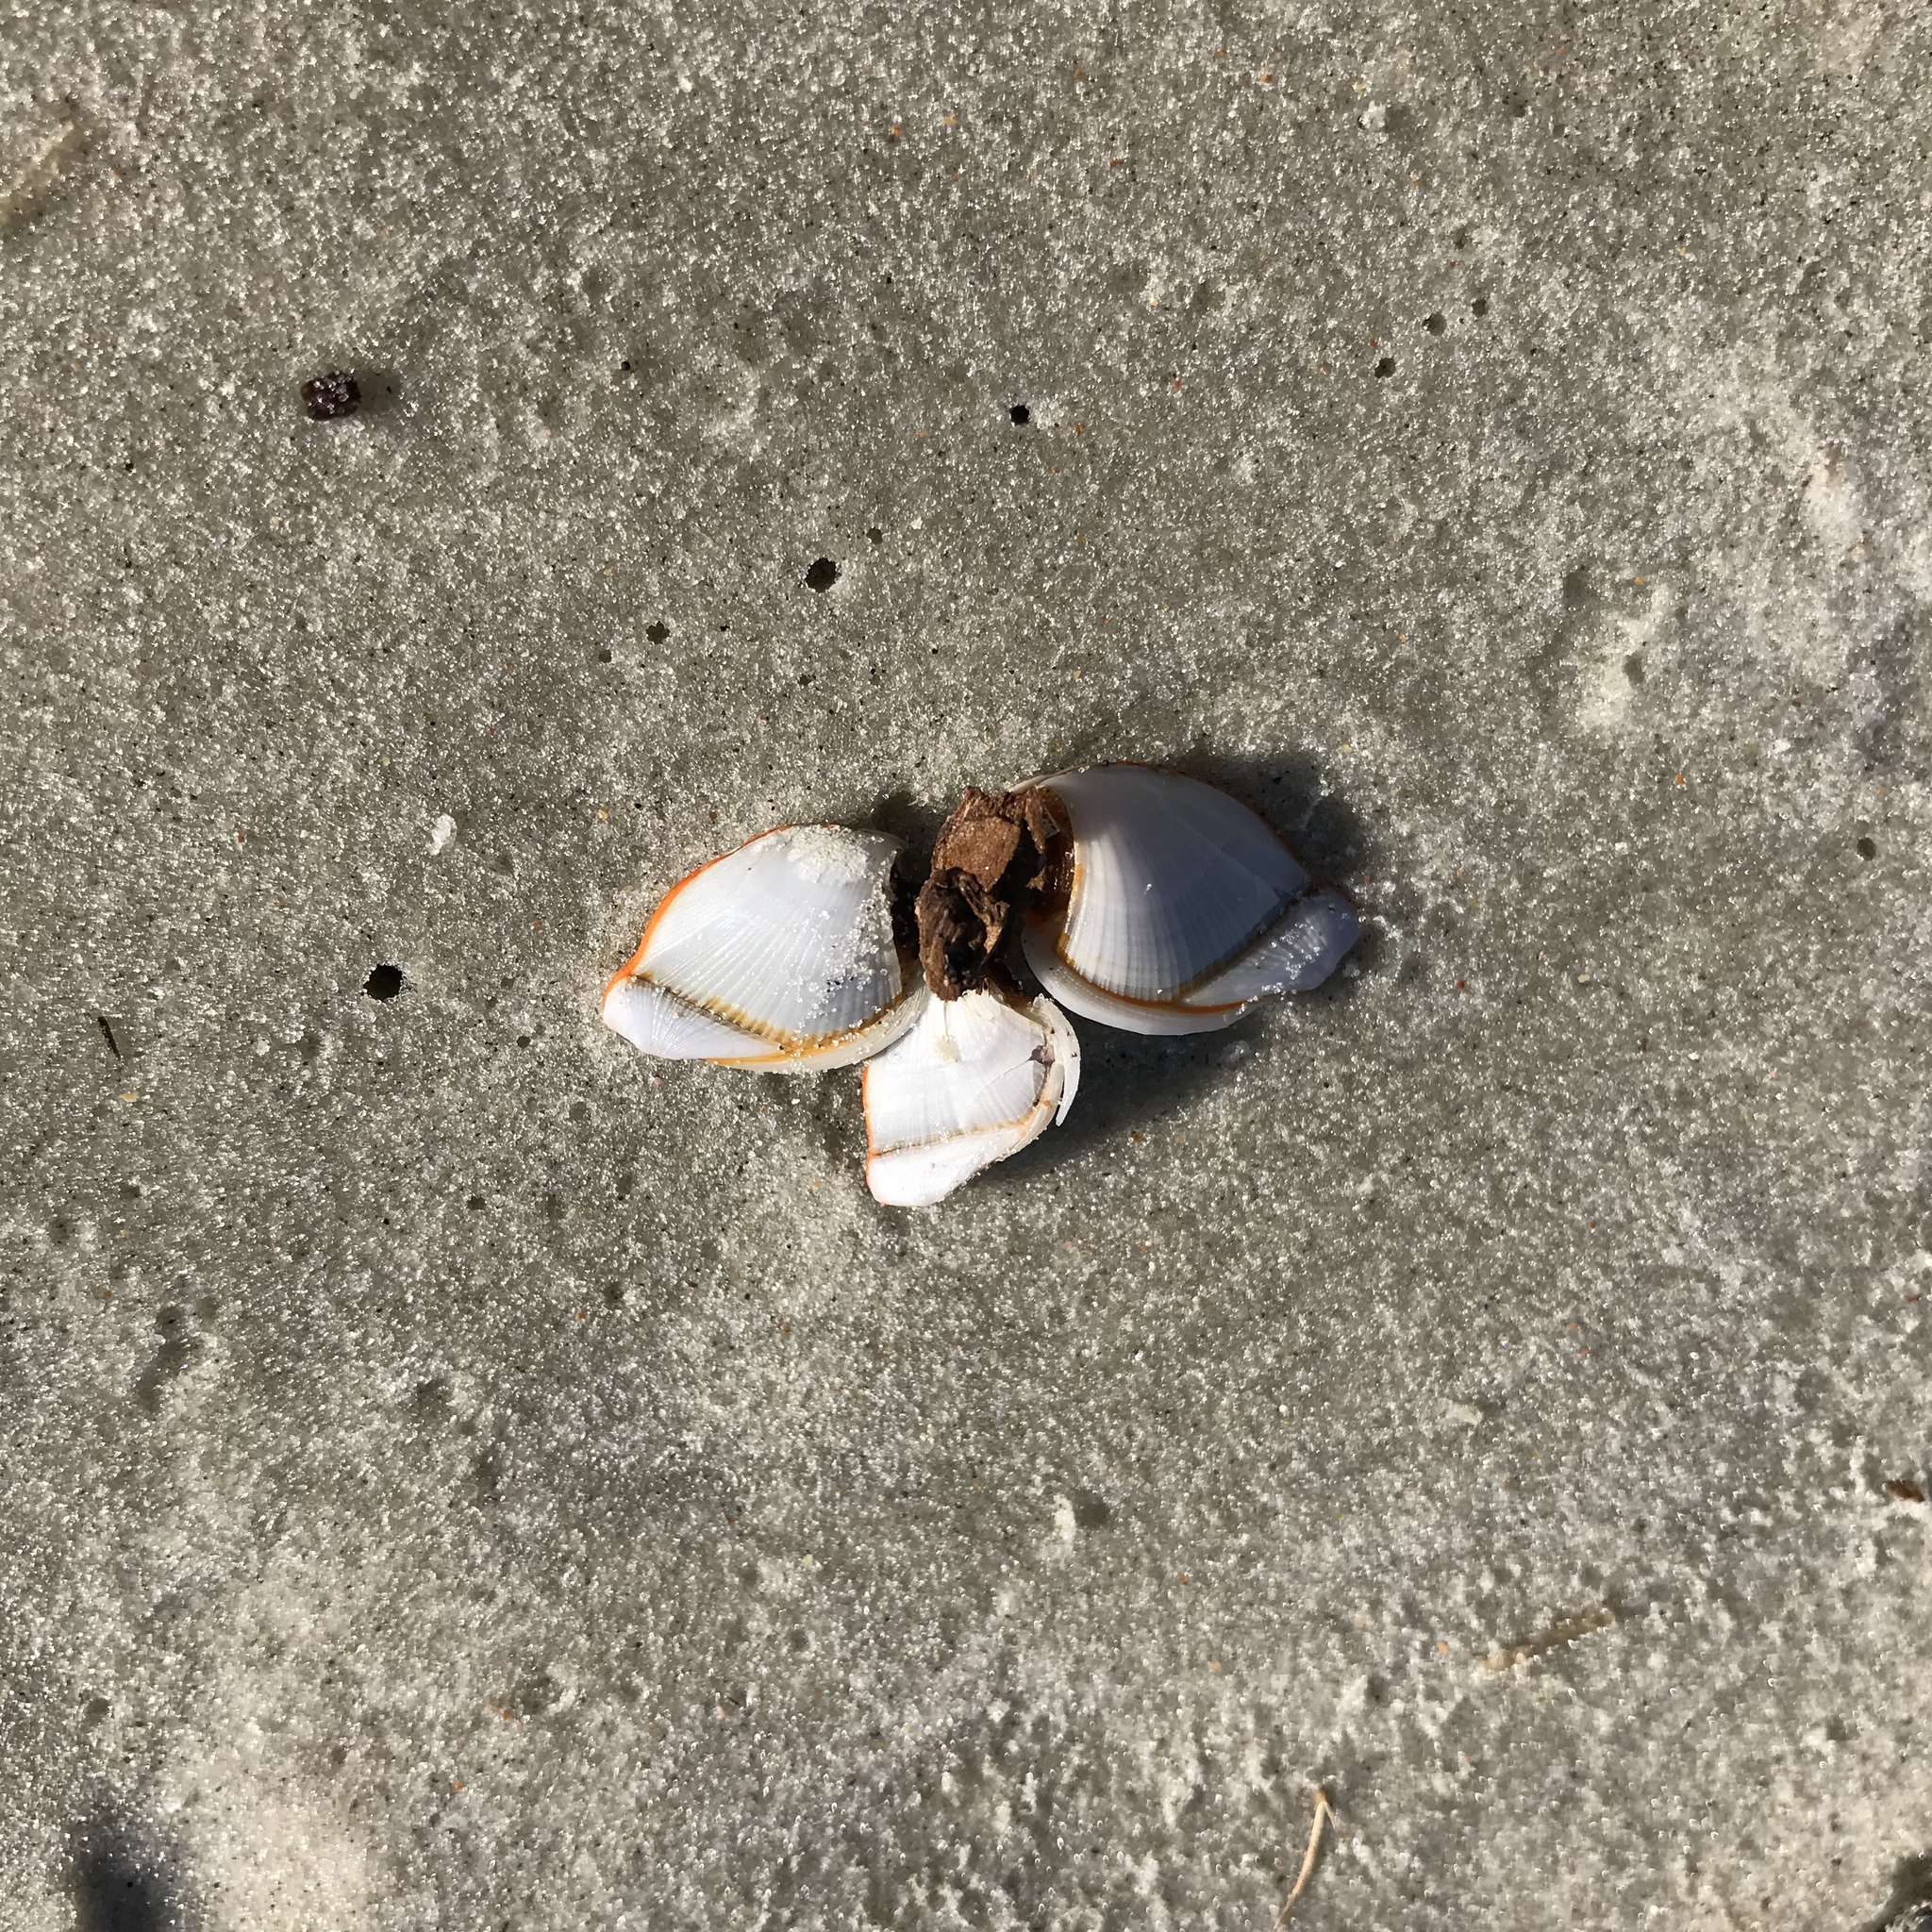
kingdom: Animalia
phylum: Arthropoda
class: Maxillopoda
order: Pedunculata
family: Lepadidae
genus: Lepas
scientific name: Lepas anserifera
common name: Goose barnacle
